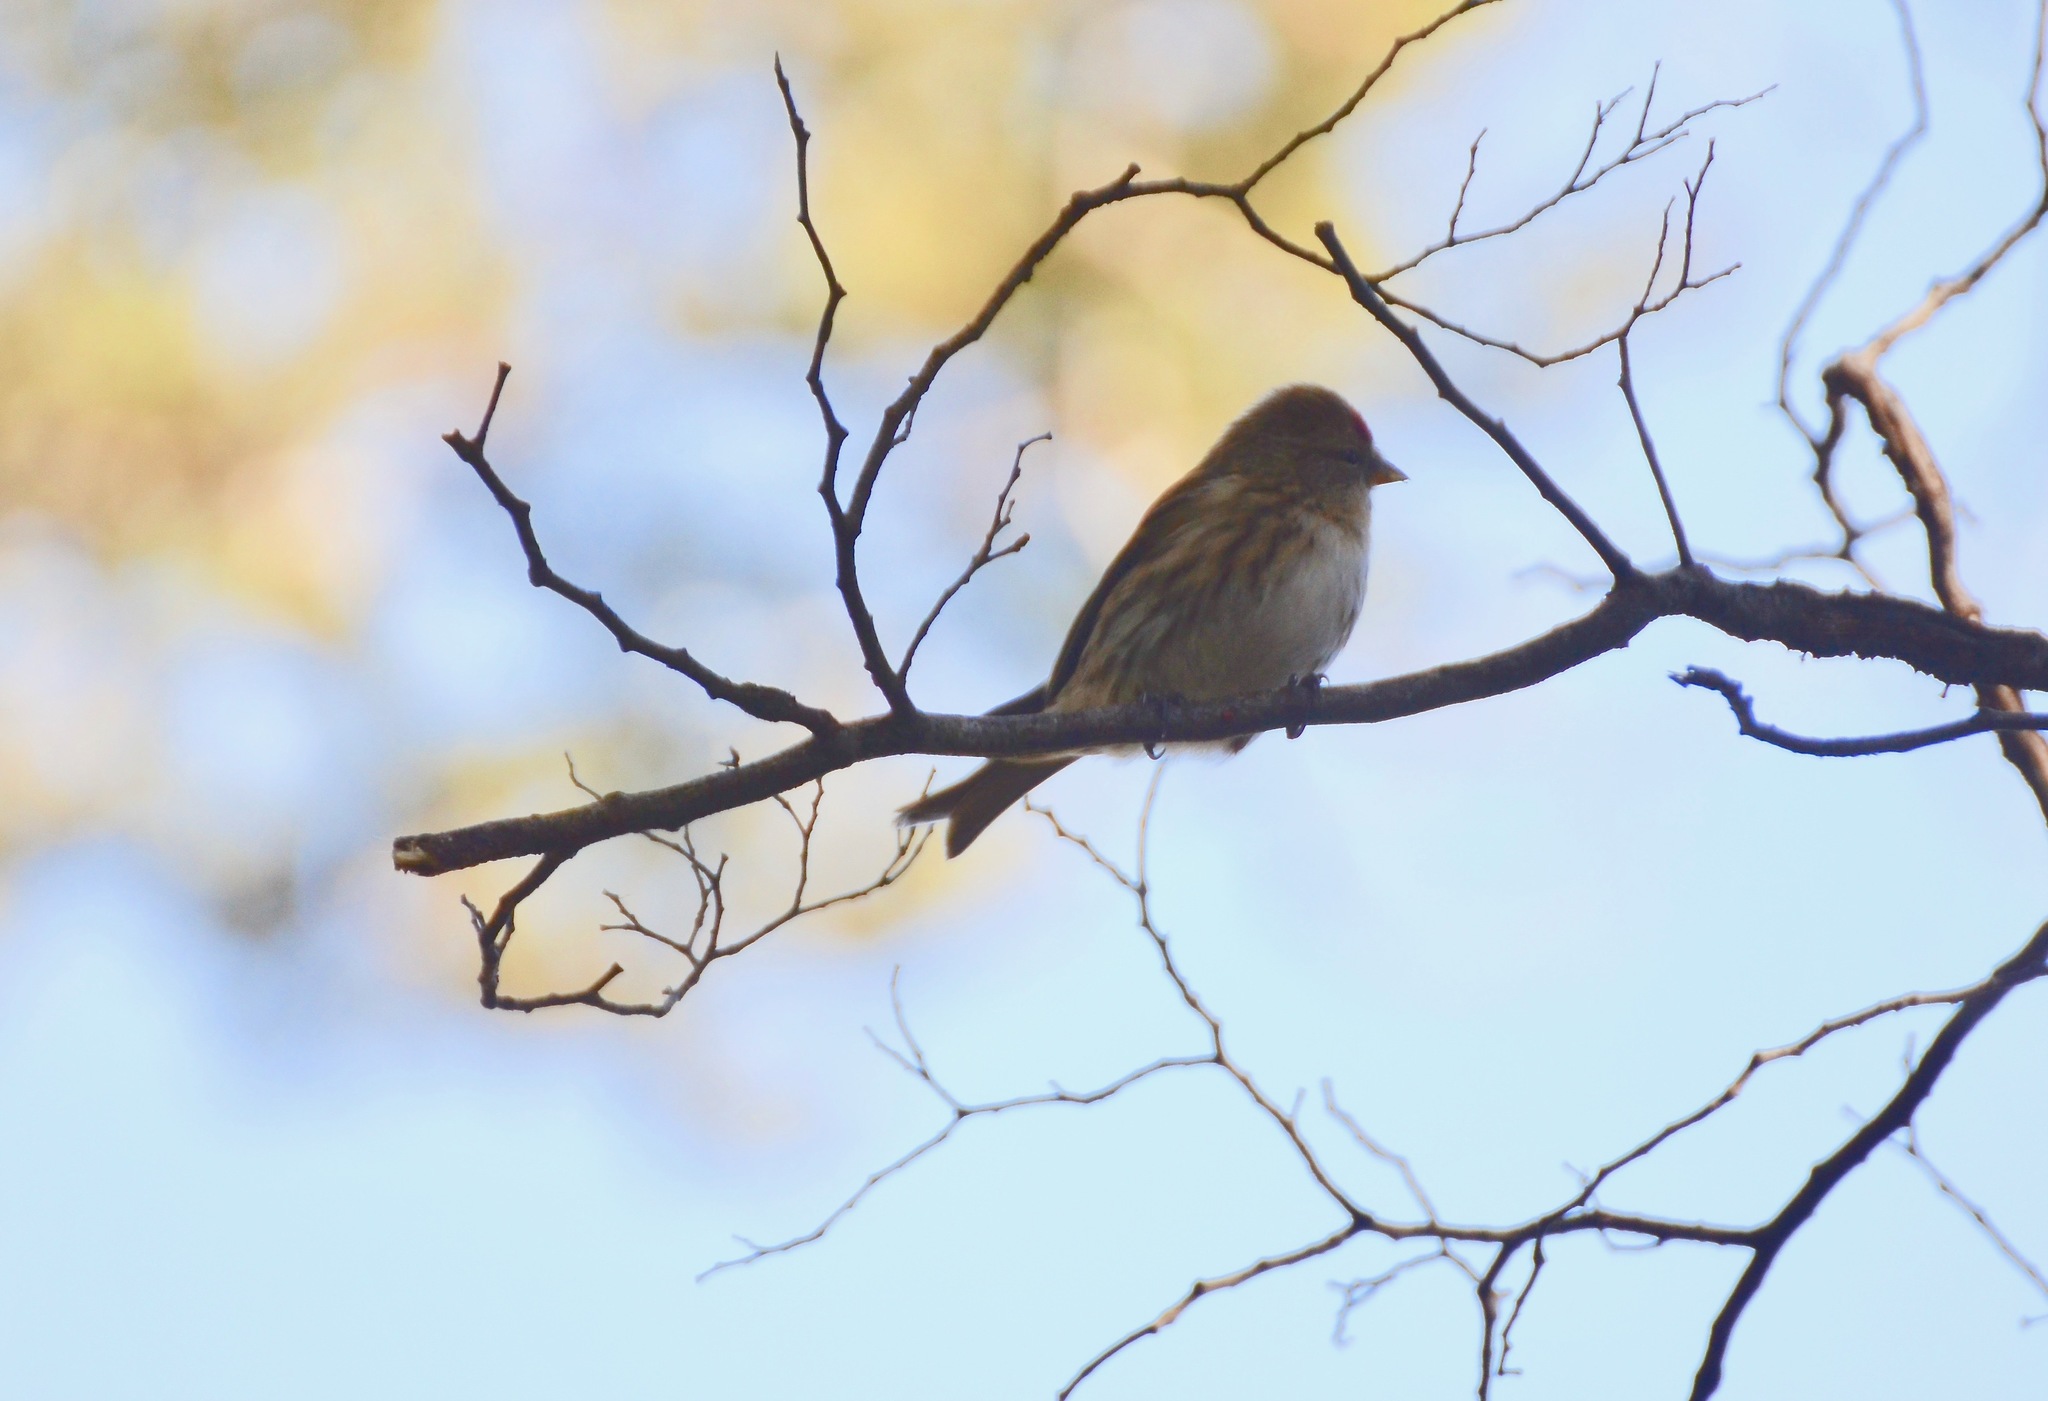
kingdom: Animalia
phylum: Chordata
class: Aves
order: Passeriformes
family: Fringillidae
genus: Acanthis
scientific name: Acanthis flammea
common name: Common redpoll
